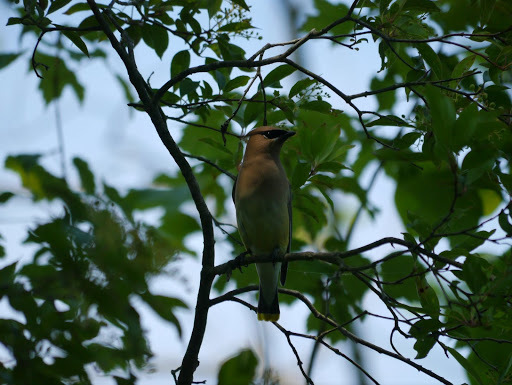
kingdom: Animalia
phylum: Chordata
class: Aves
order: Passeriformes
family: Bombycillidae
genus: Bombycilla
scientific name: Bombycilla cedrorum
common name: Cedar waxwing
